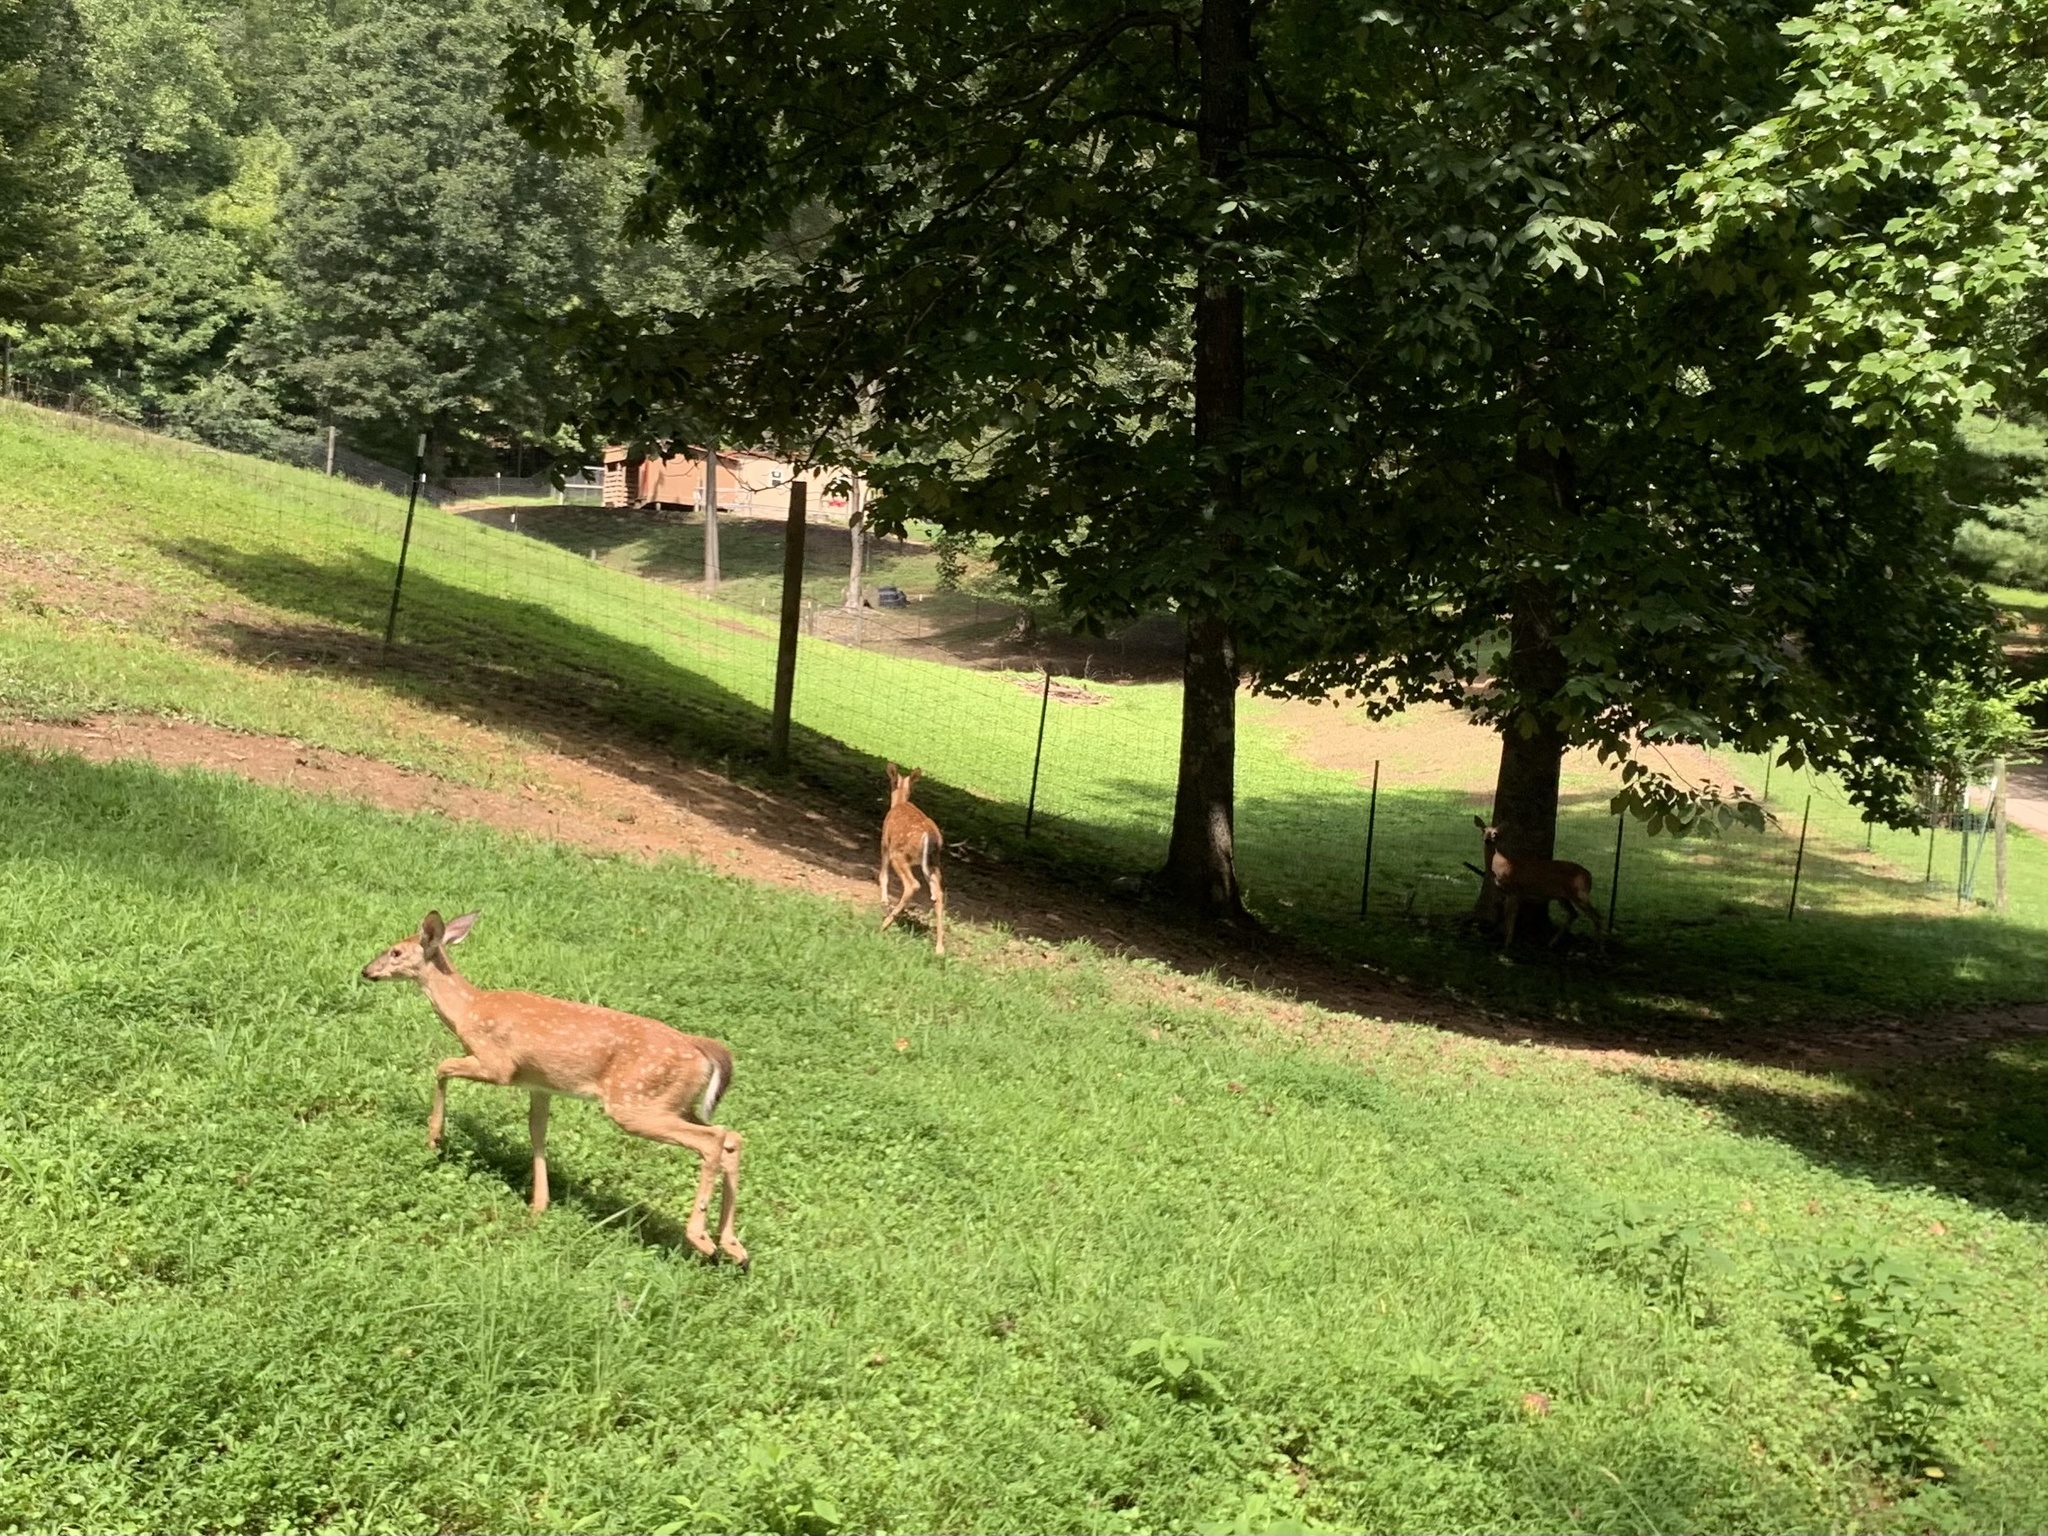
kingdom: Animalia
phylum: Chordata
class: Mammalia
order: Artiodactyla
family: Cervidae
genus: Odocoileus
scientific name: Odocoileus virginianus
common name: White-tailed deer
